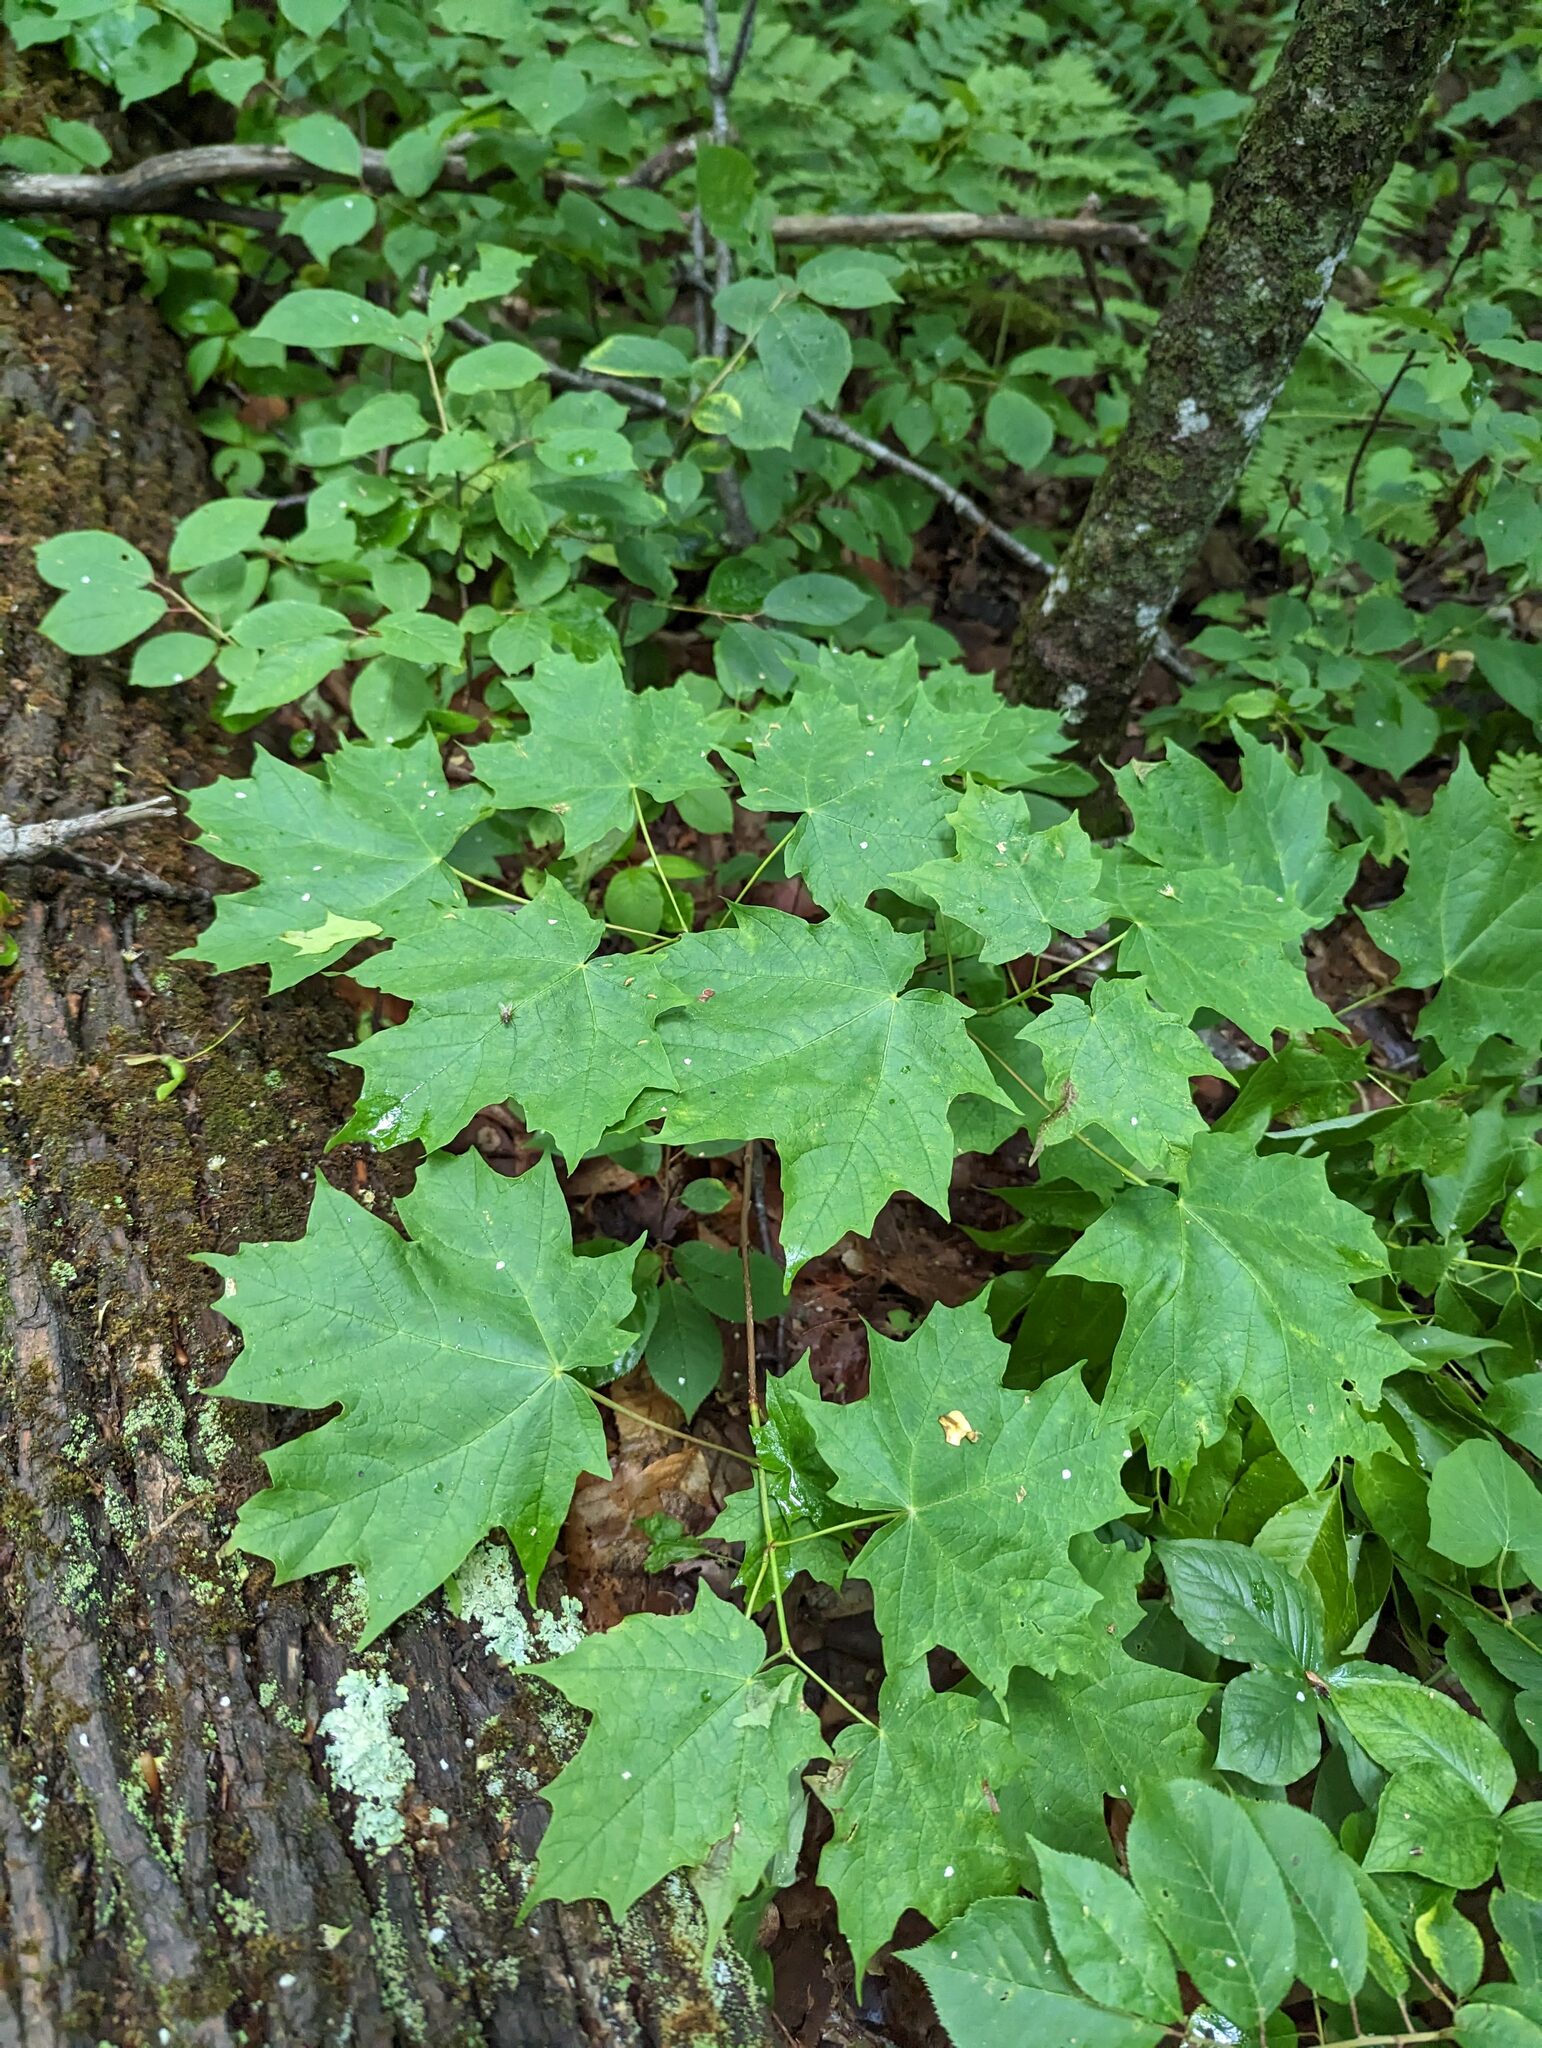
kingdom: Plantae
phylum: Tracheophyta
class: Magnoliopsida
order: Sapindales
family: Sapindaceae
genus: Acer
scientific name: Acer saccharum
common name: Sugar maple
